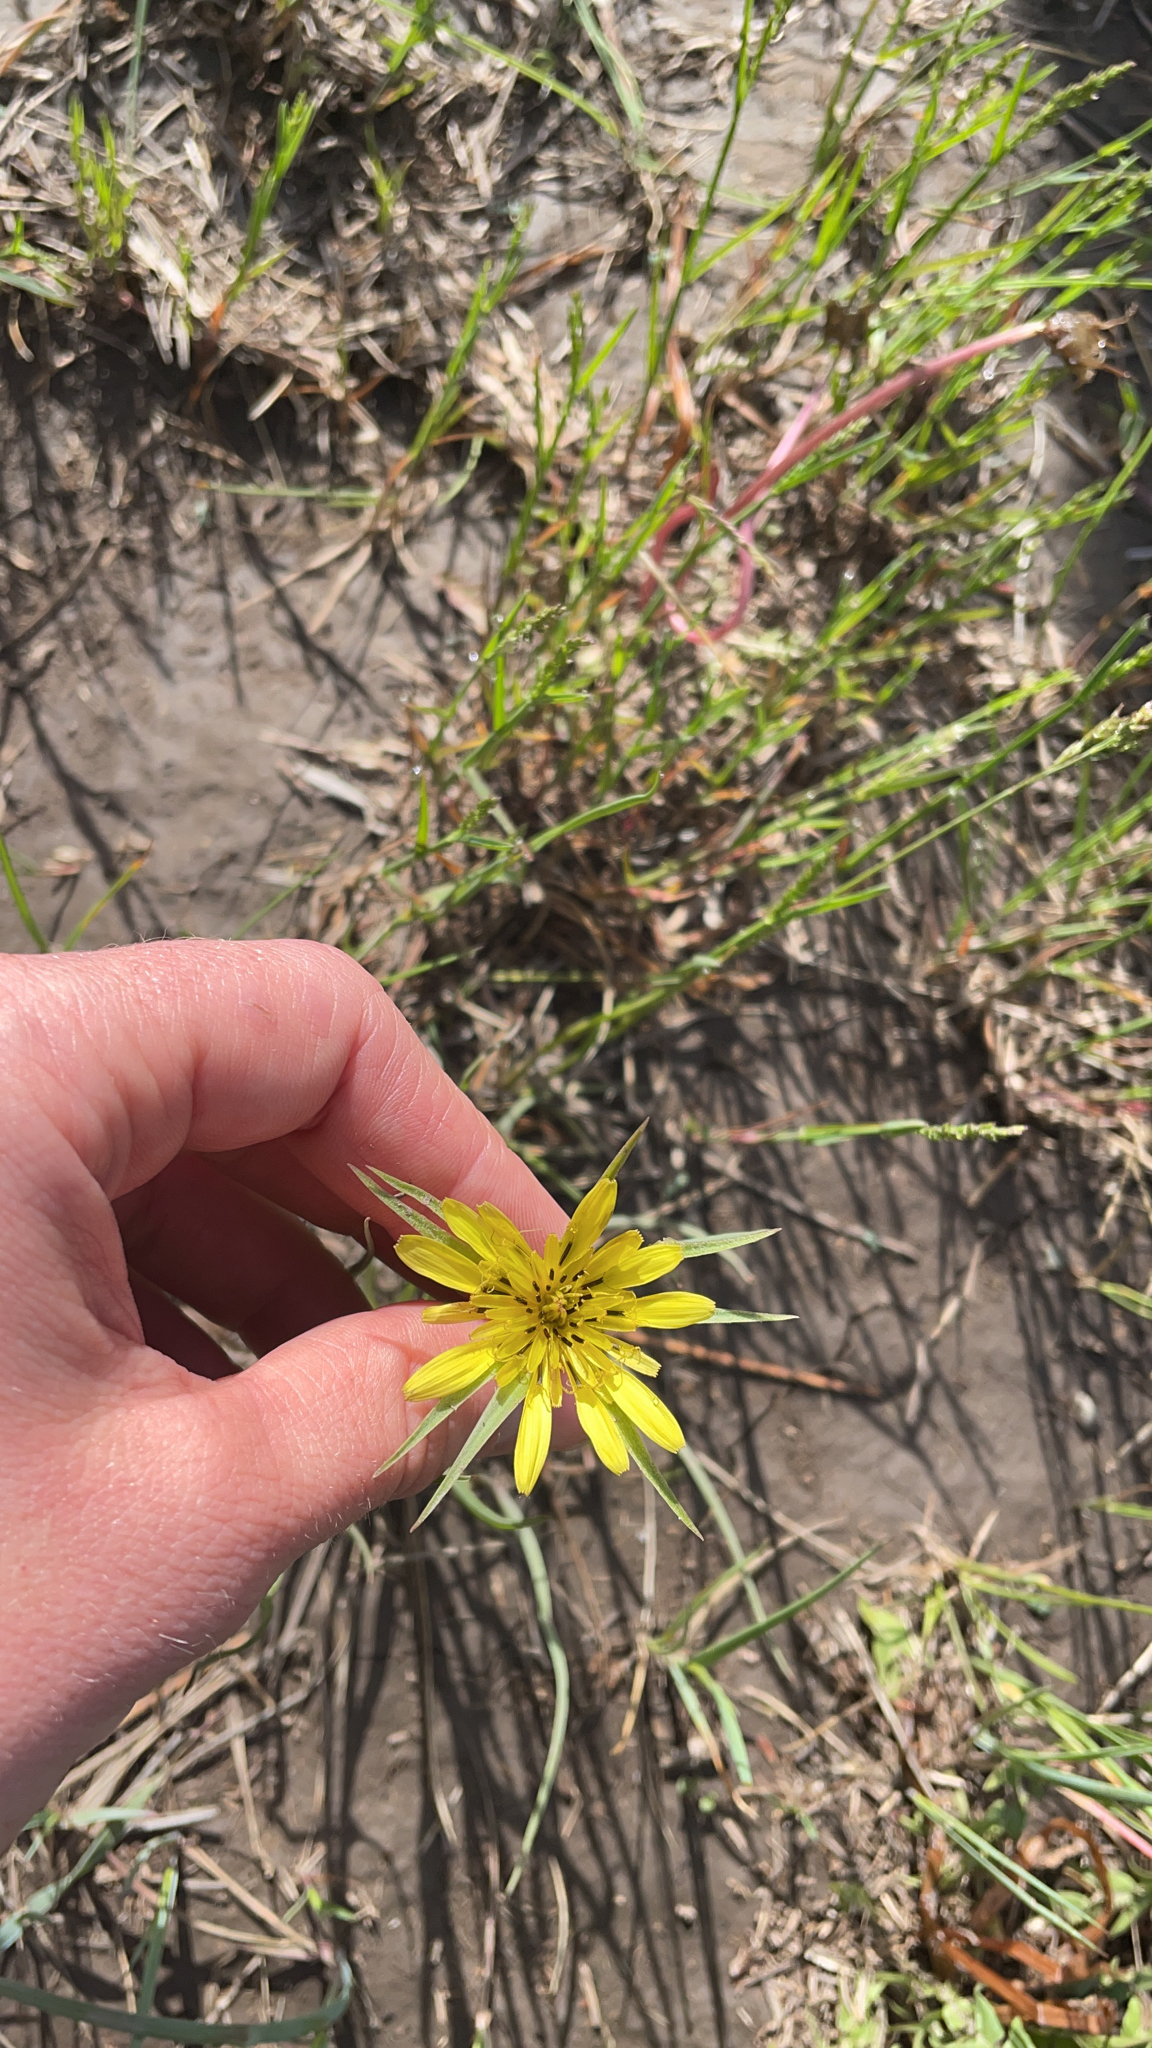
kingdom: Plantae
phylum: Tracheophyta
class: Magnoliopsida
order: Asterales
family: Asteraceae
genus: Tragopogon
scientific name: Tragopogon dubius
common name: Yellow salsify
